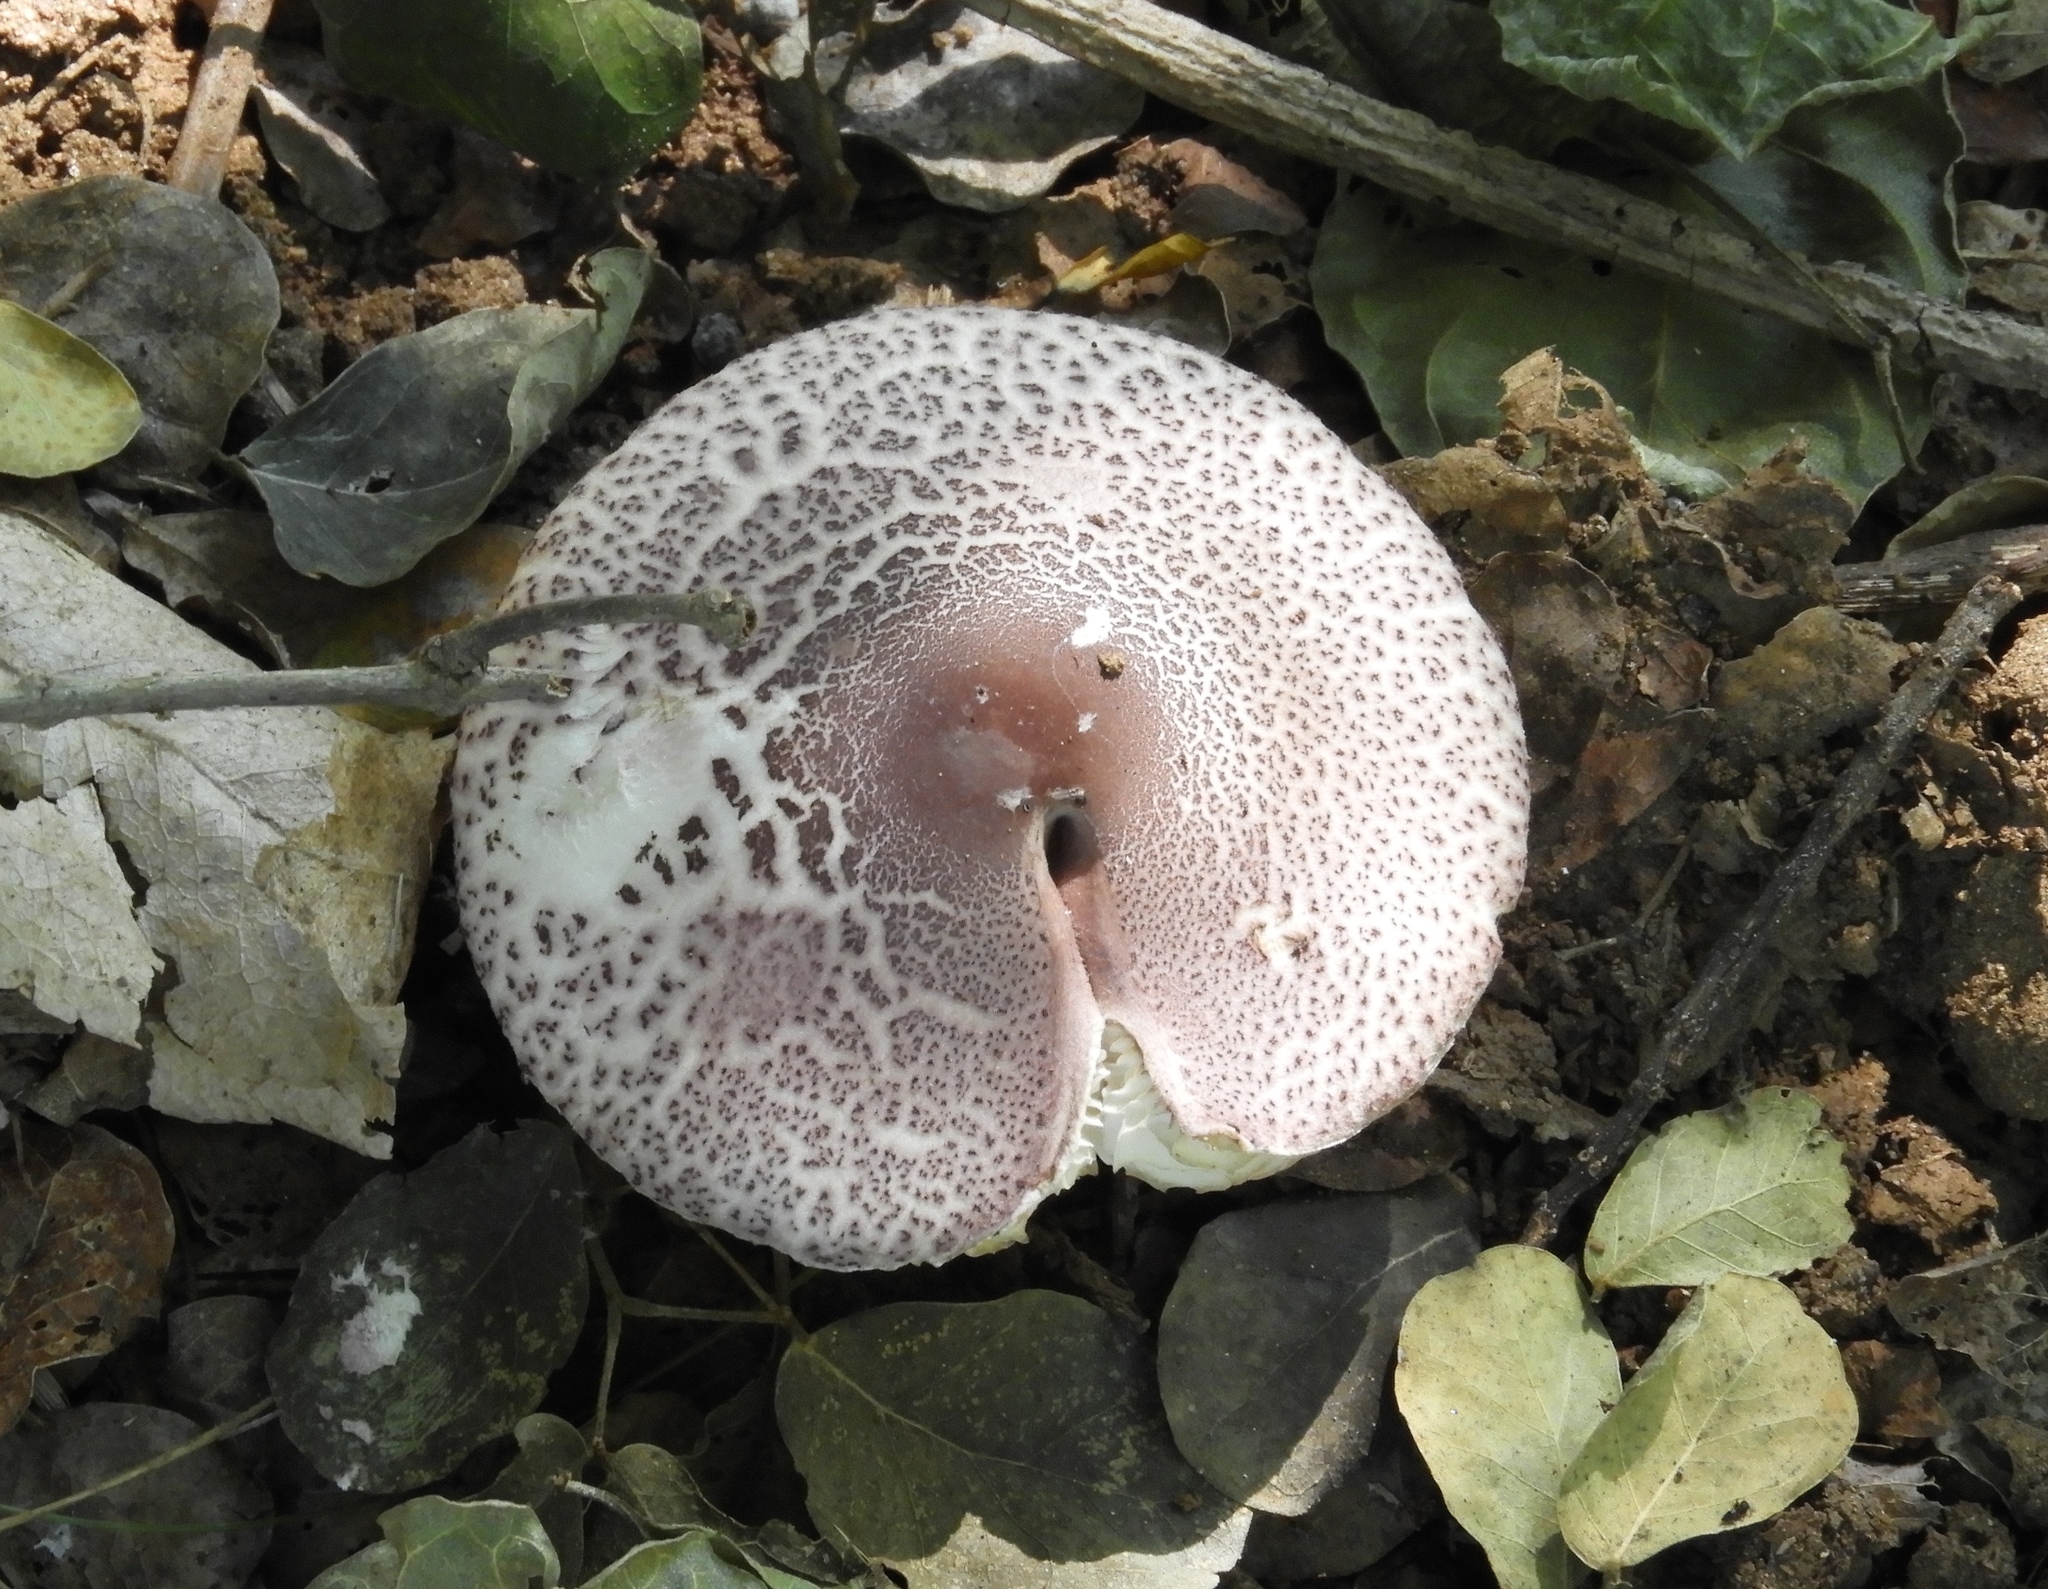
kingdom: Fungi
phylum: Basidiomycota
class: Agaricomycetes
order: Agaricales
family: Agaricaceae
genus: Leucoagaricus
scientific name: Leucoagaricus
